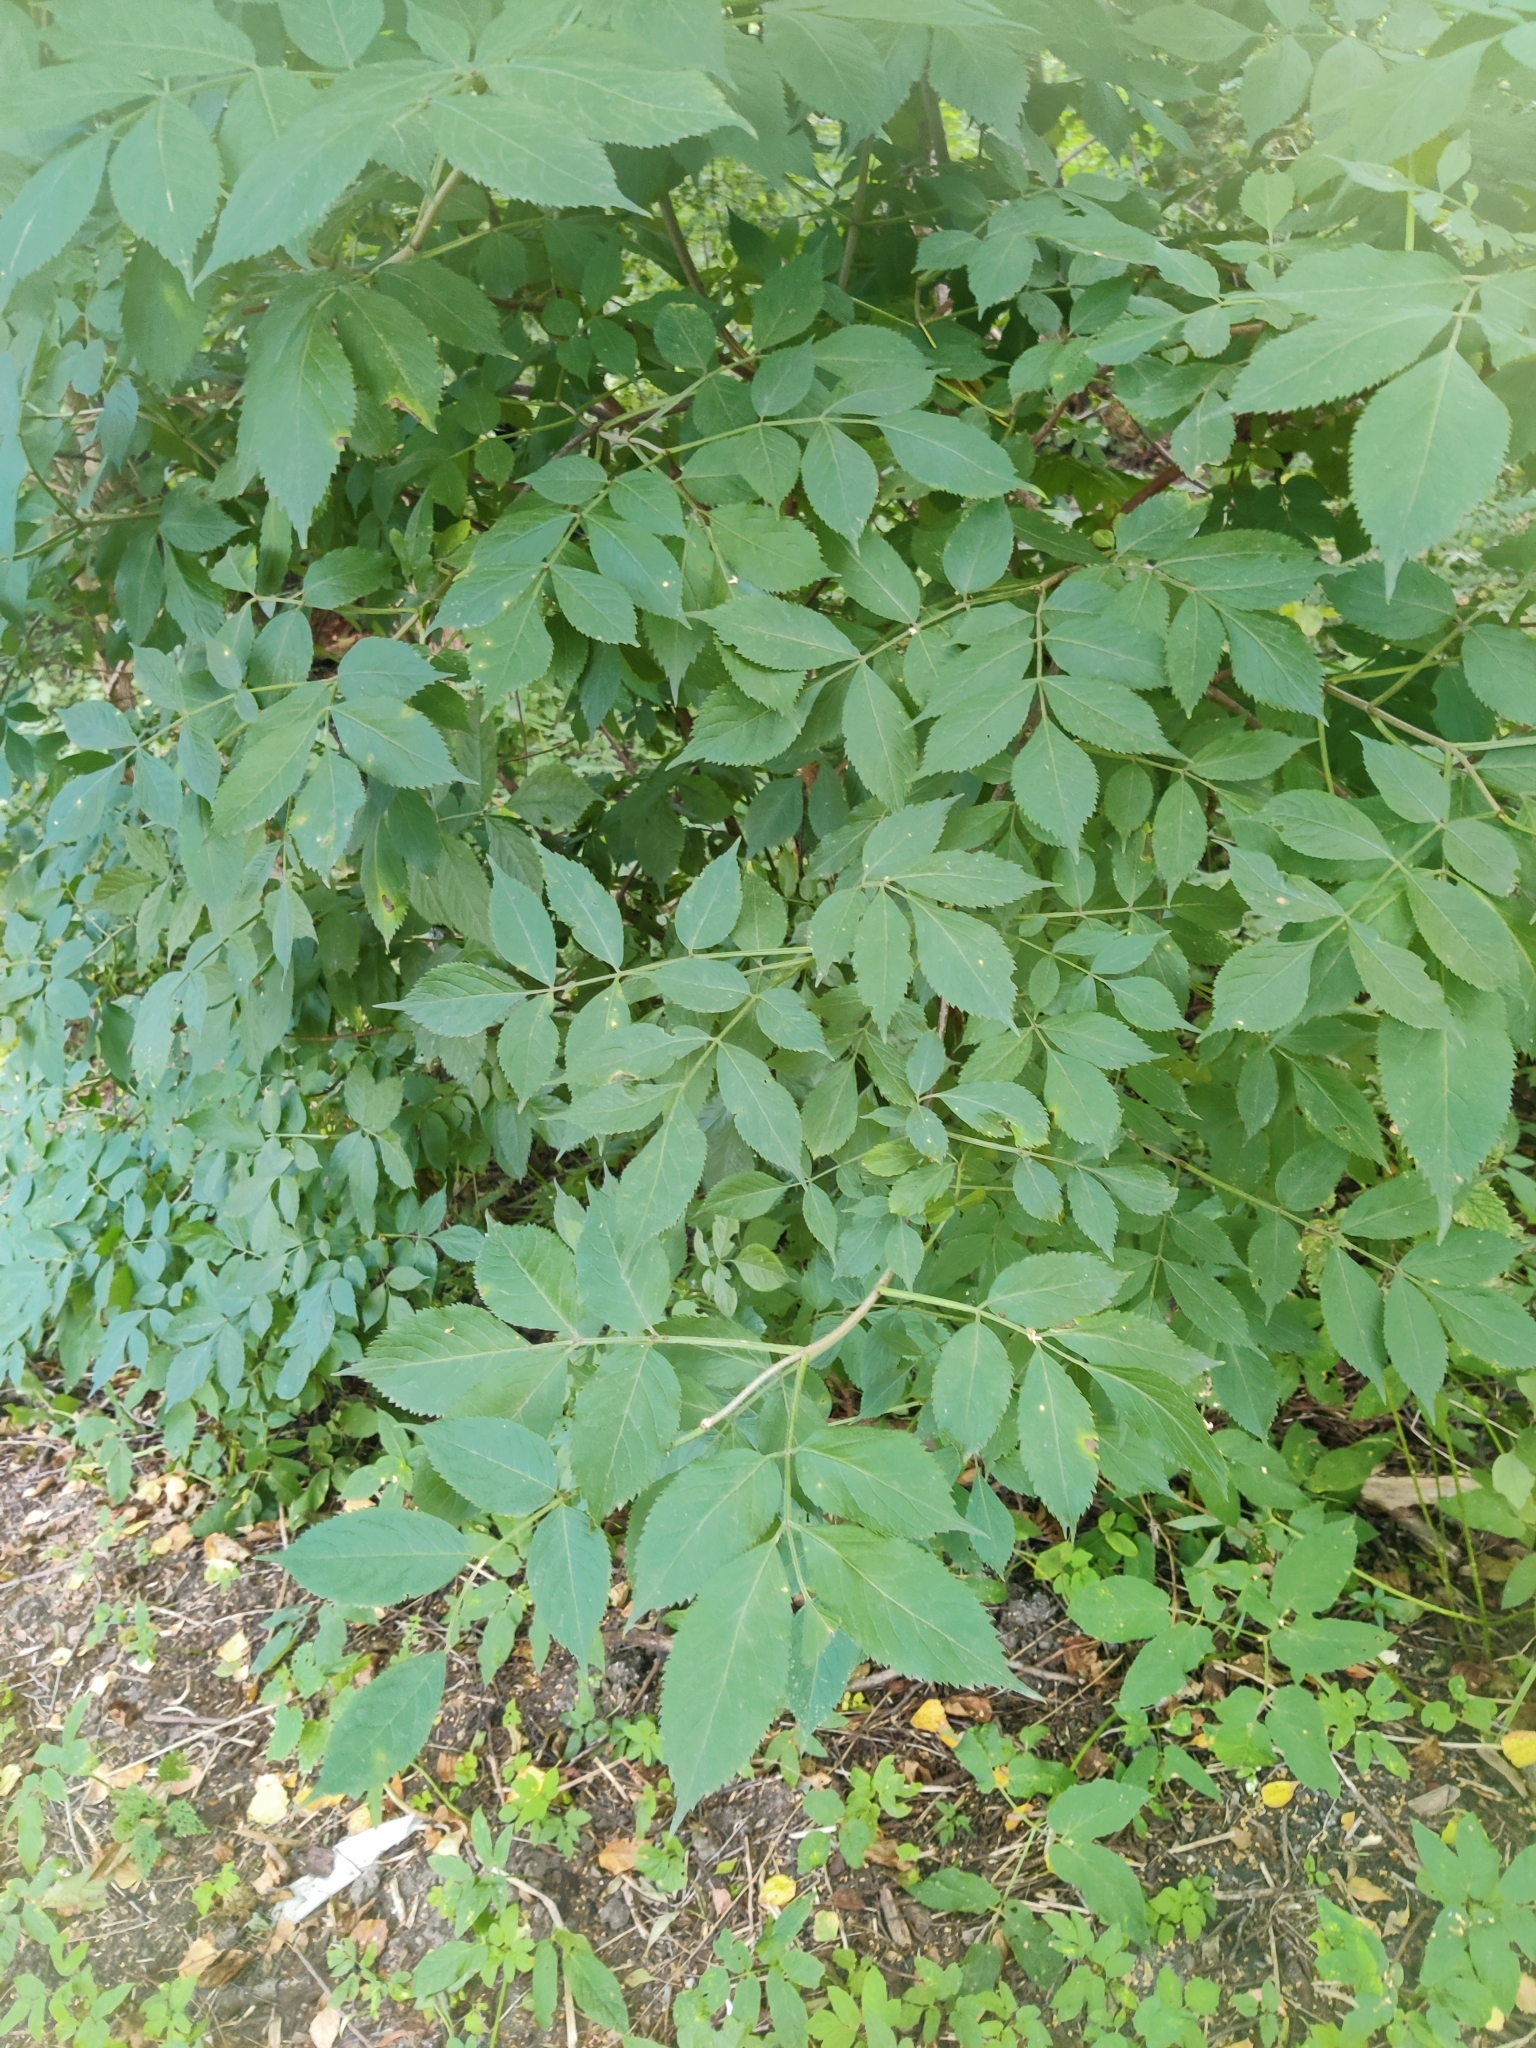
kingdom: Plantae
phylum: Tracheophyta
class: Magnoliopsida
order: Dipsacales
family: Viburnaceae
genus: Sambucus
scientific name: Sambucus nigra
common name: Elder
